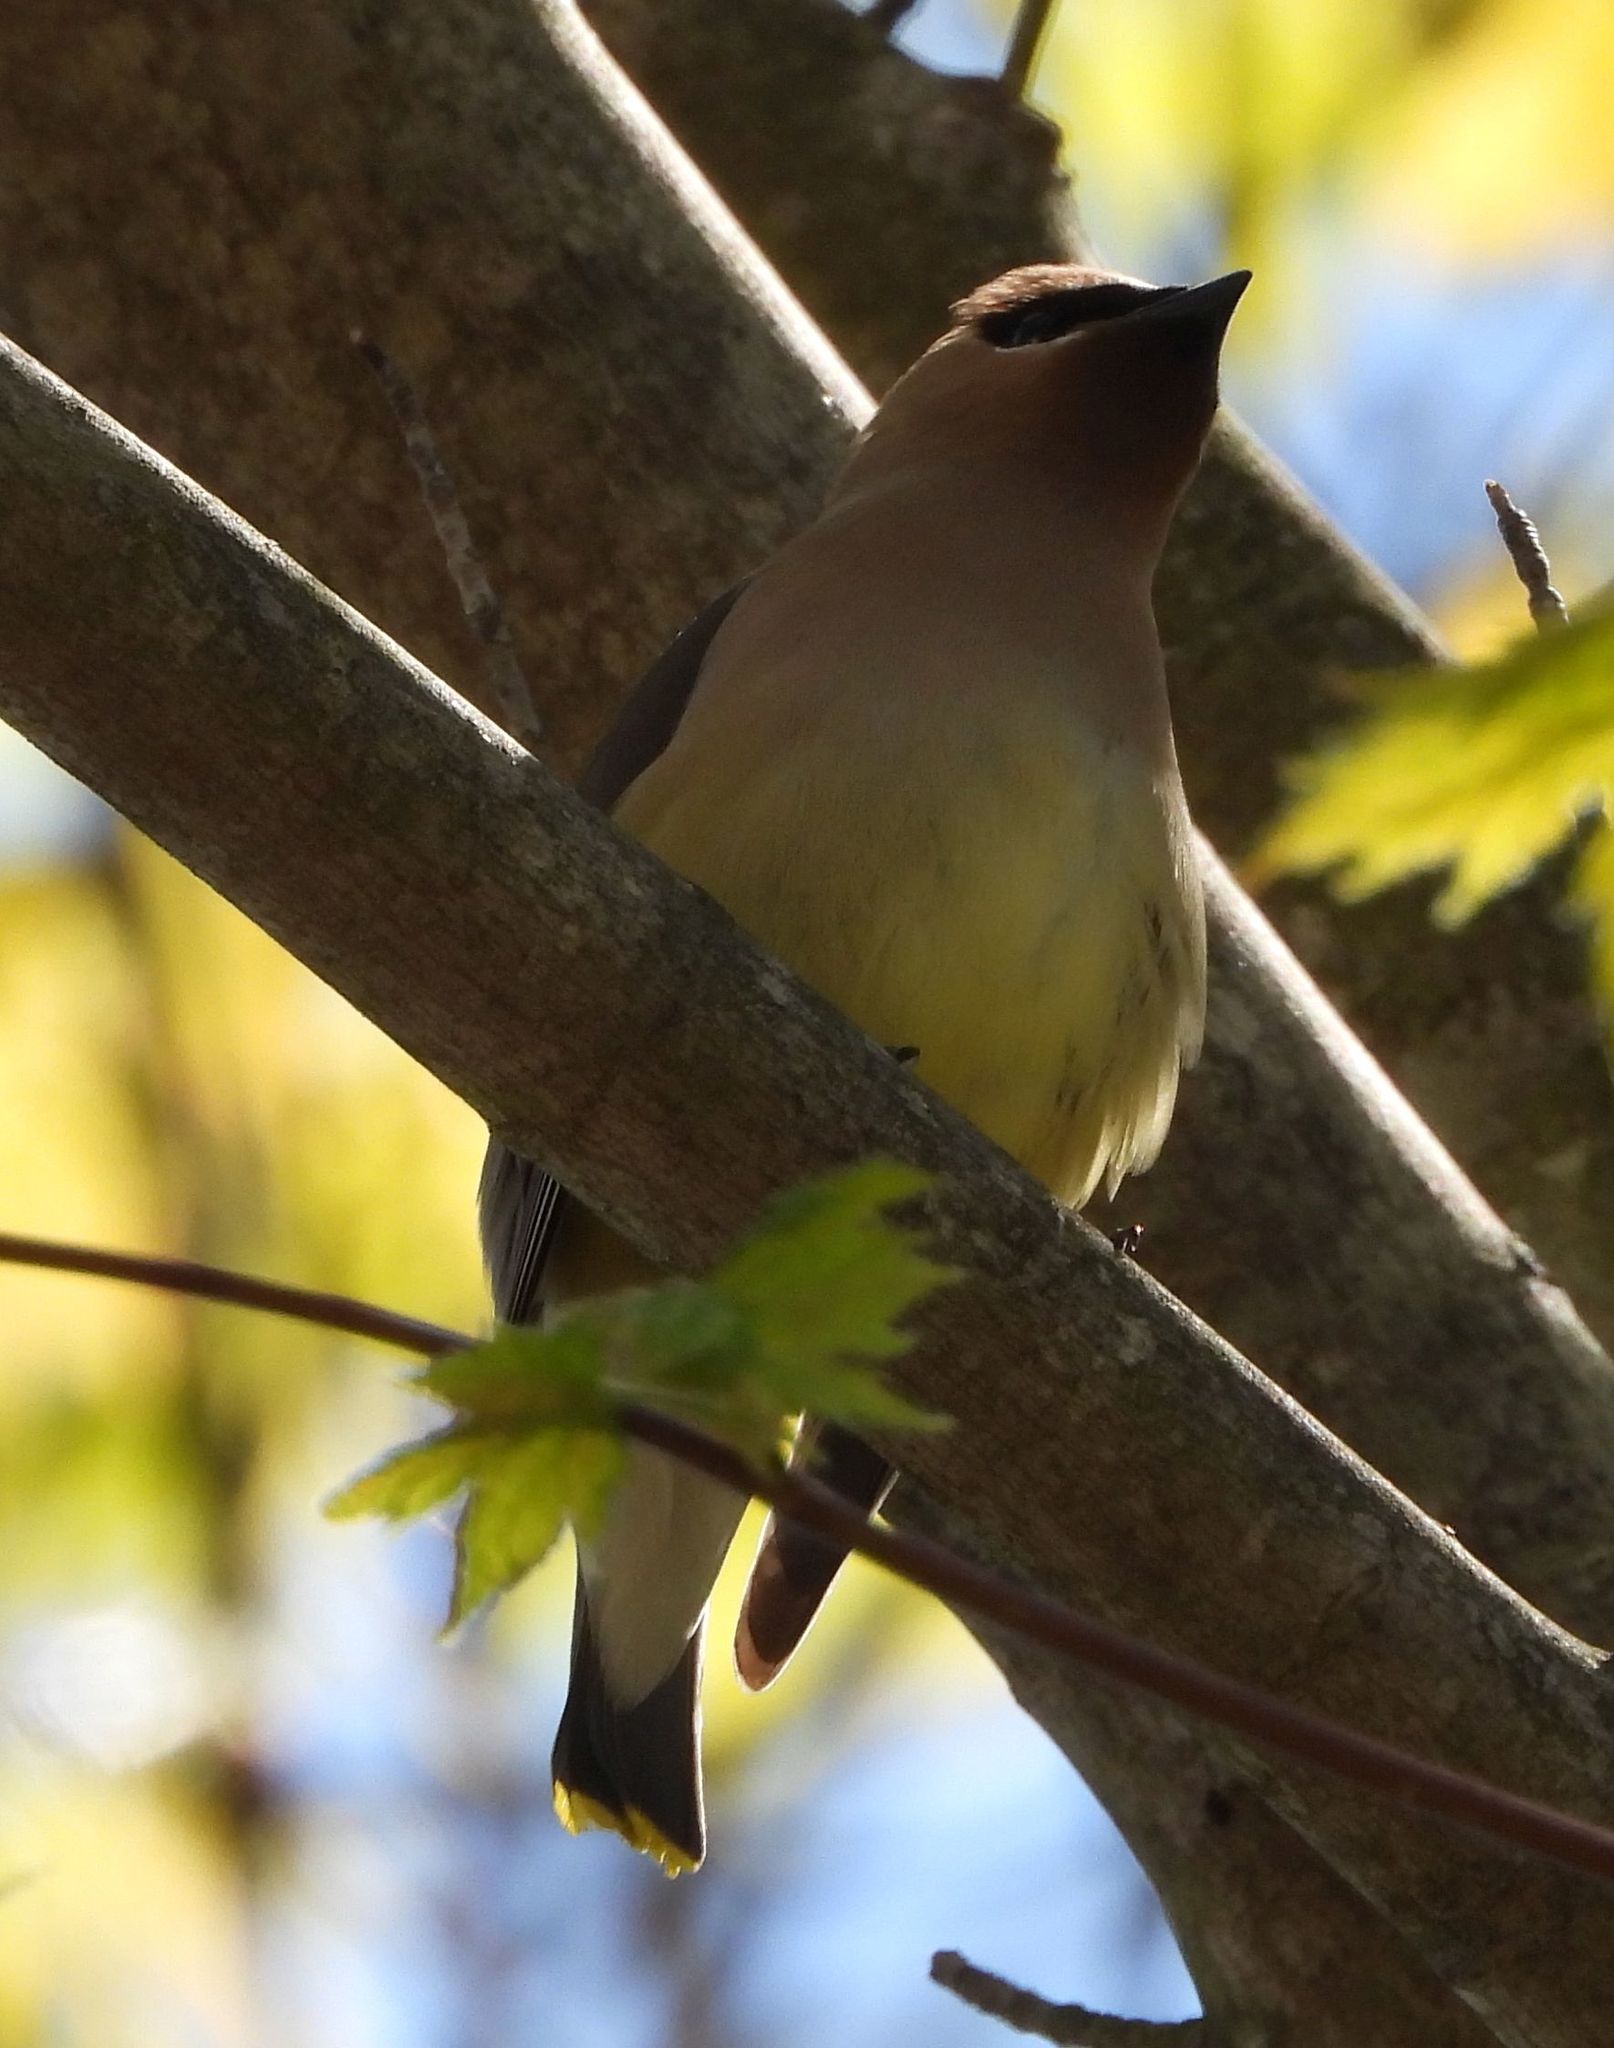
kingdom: Animalia
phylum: Chordata
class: Aves
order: Passeriformes
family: Bombycillidae
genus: Bombycilla
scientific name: Bombycilla cedrorum
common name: Cedar waxwing
